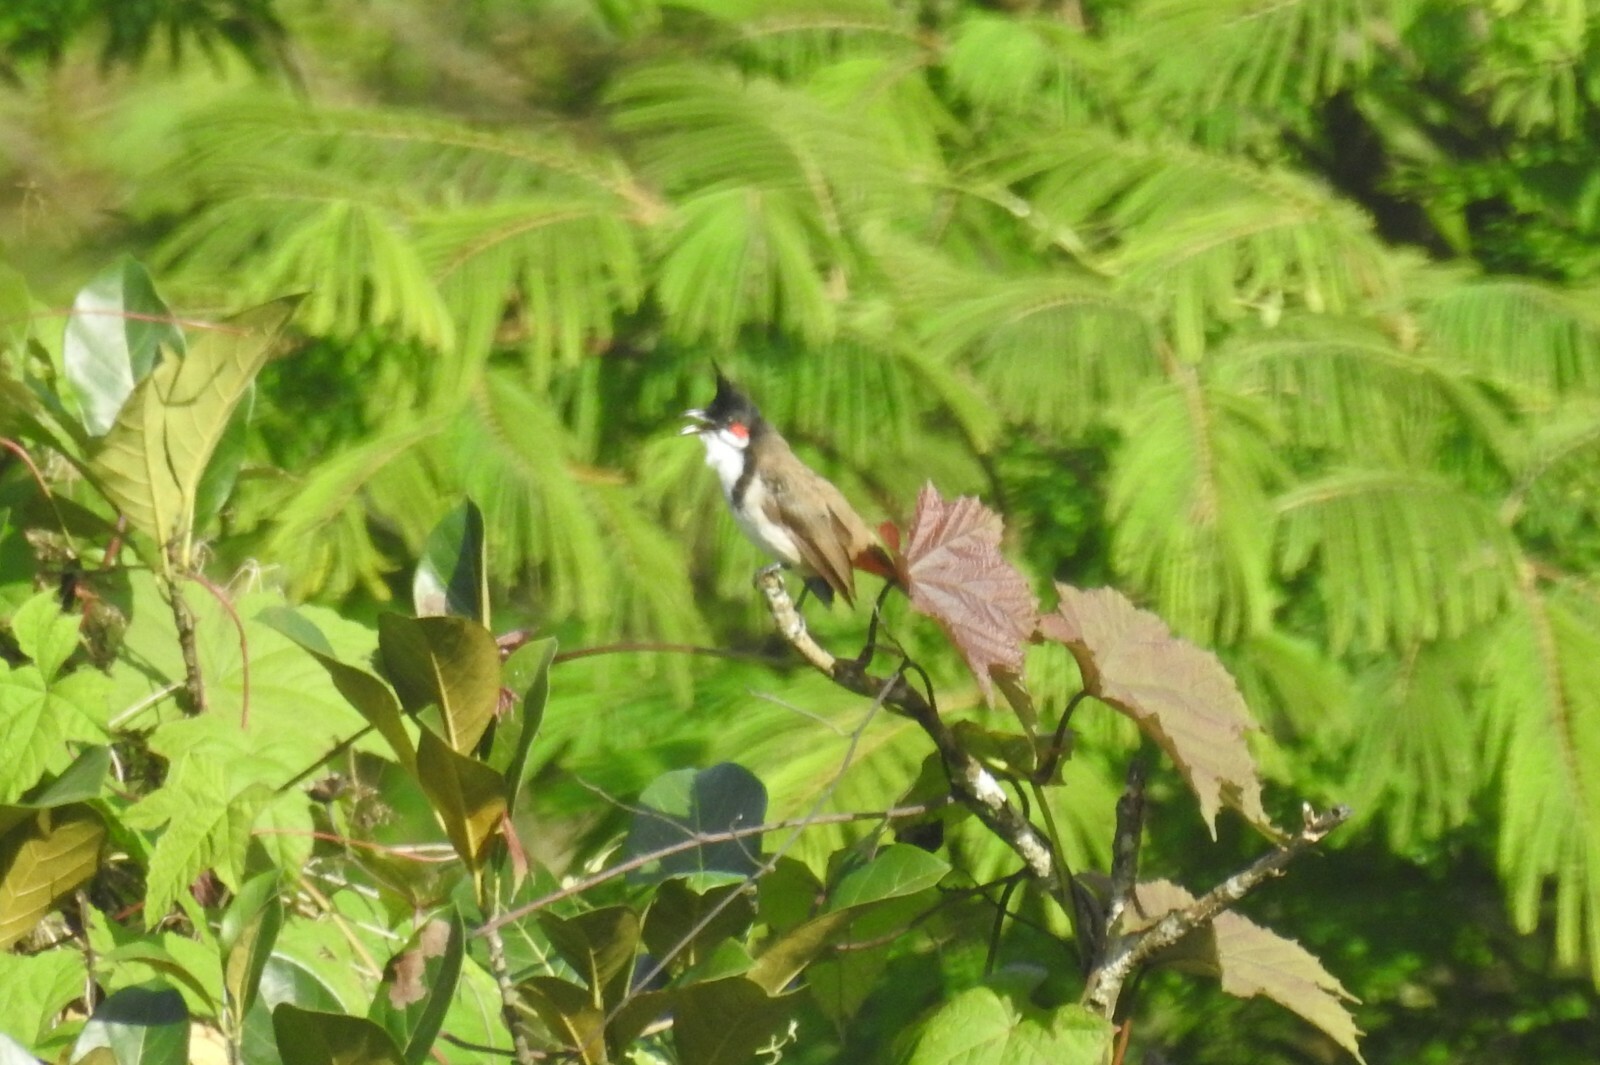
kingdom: Animalia
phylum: Chordata
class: Aves
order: Passeriformes
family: Pycnonotidae
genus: Pycnonotus
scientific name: Pycnonotus jocosus
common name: Red-whiskered bulbul
